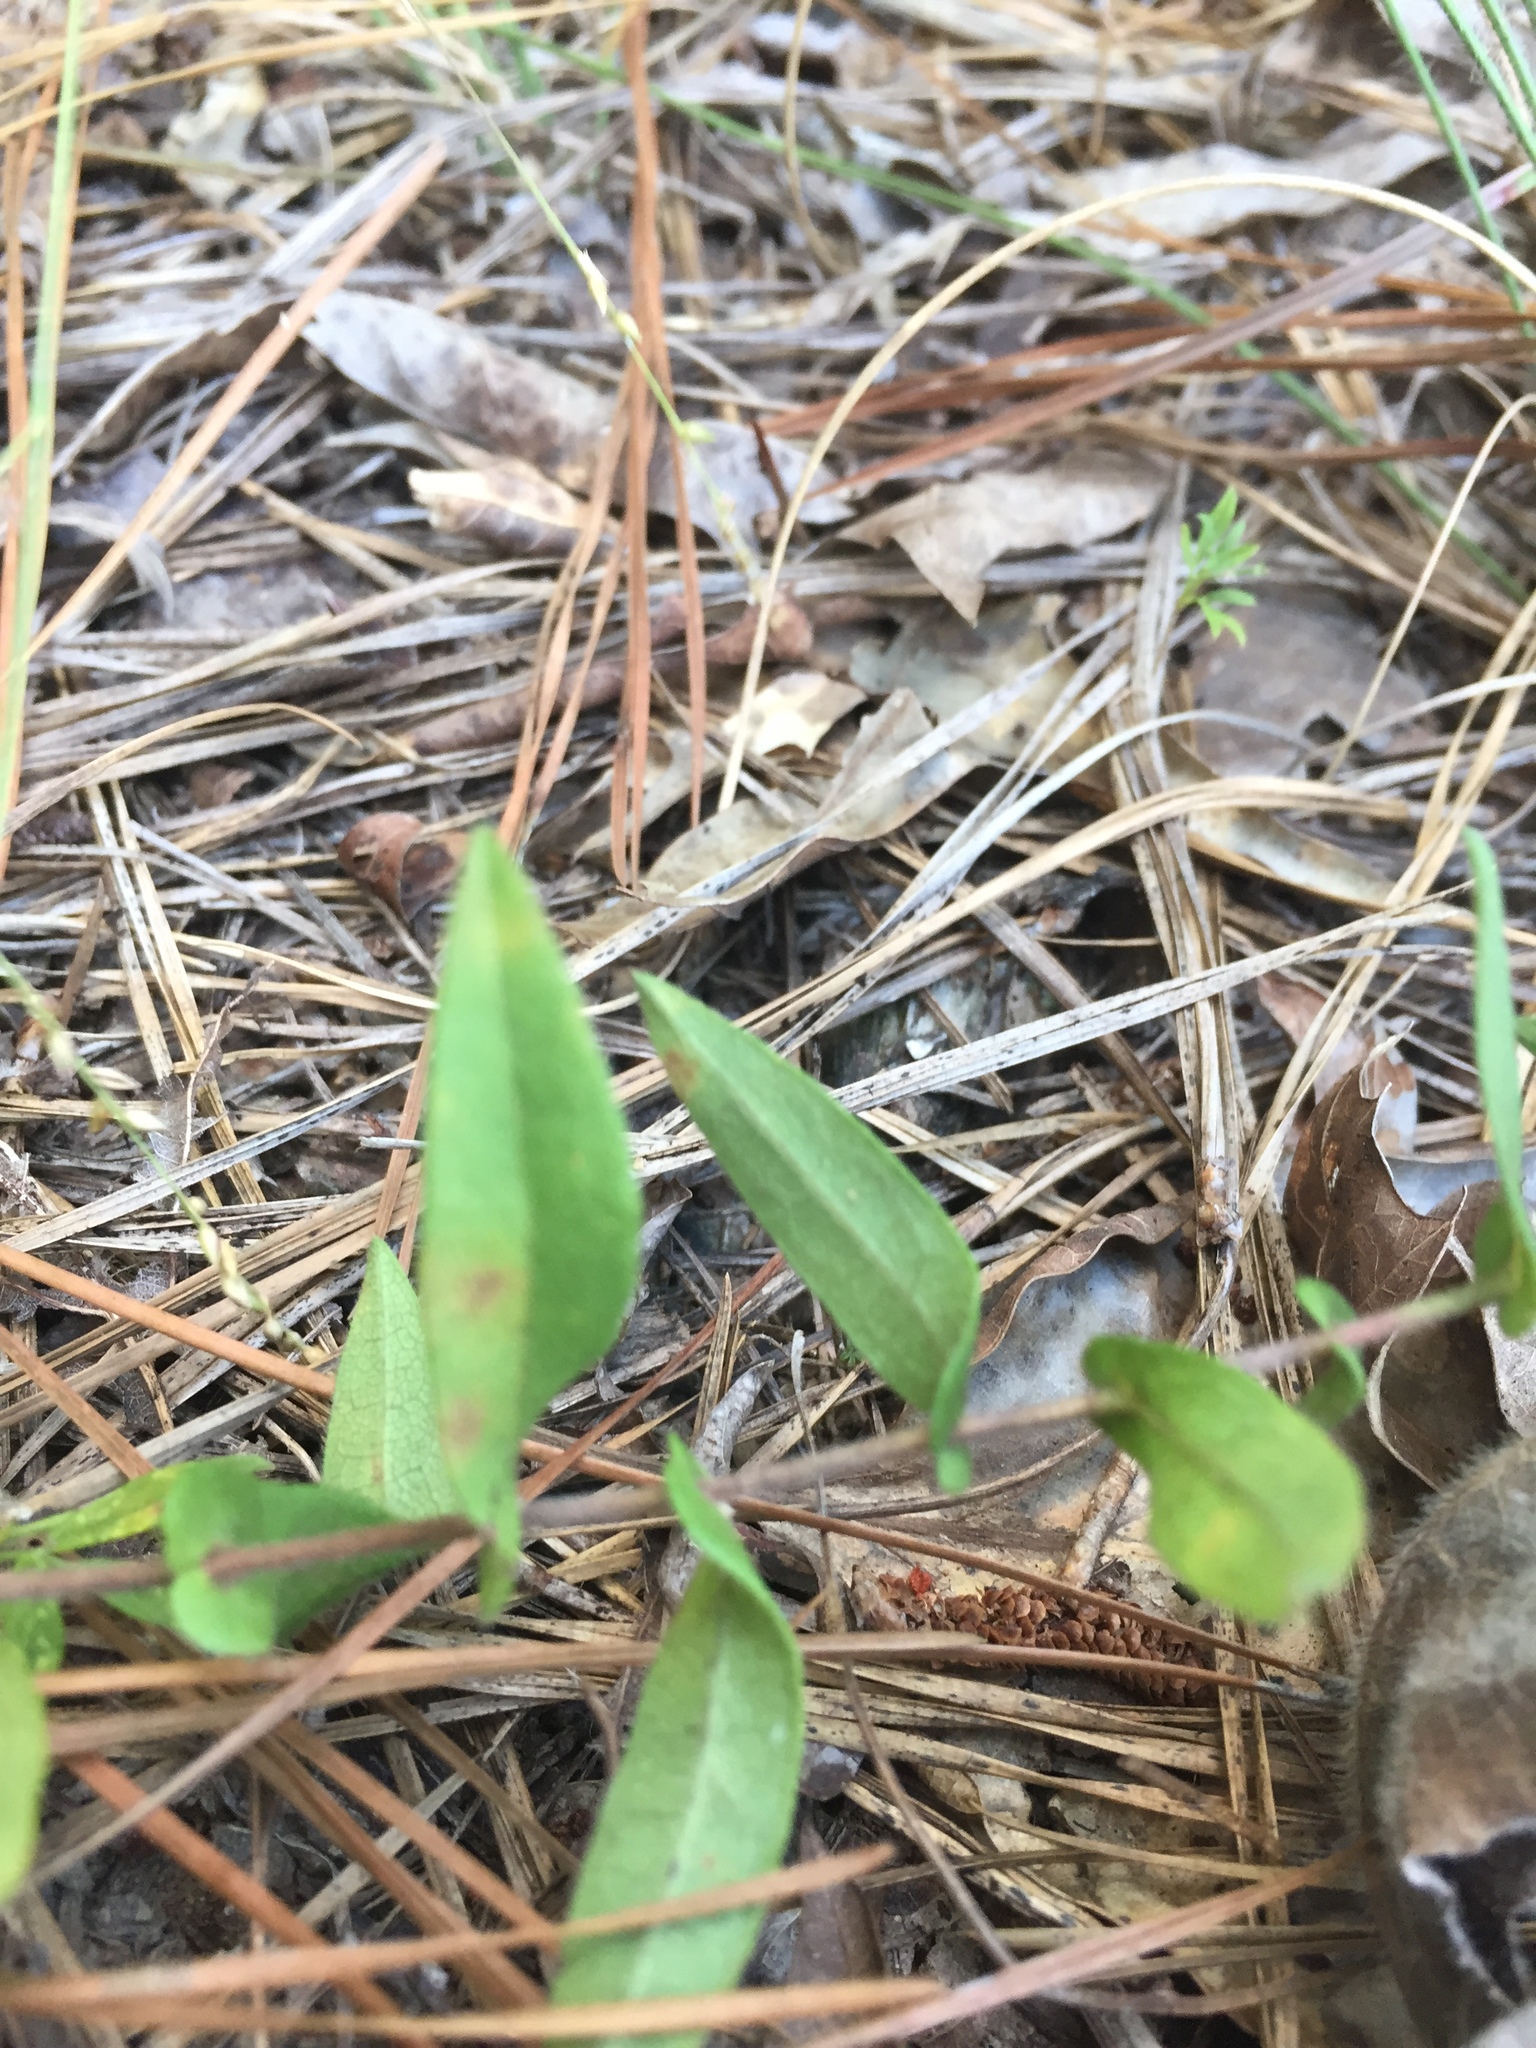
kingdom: Plantae
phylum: Tracheophyta
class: Magnoliopsida
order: Asterales
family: Asteraceae
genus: Symphyotrichum
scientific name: Symphyotrichum patens
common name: Late purple aster
